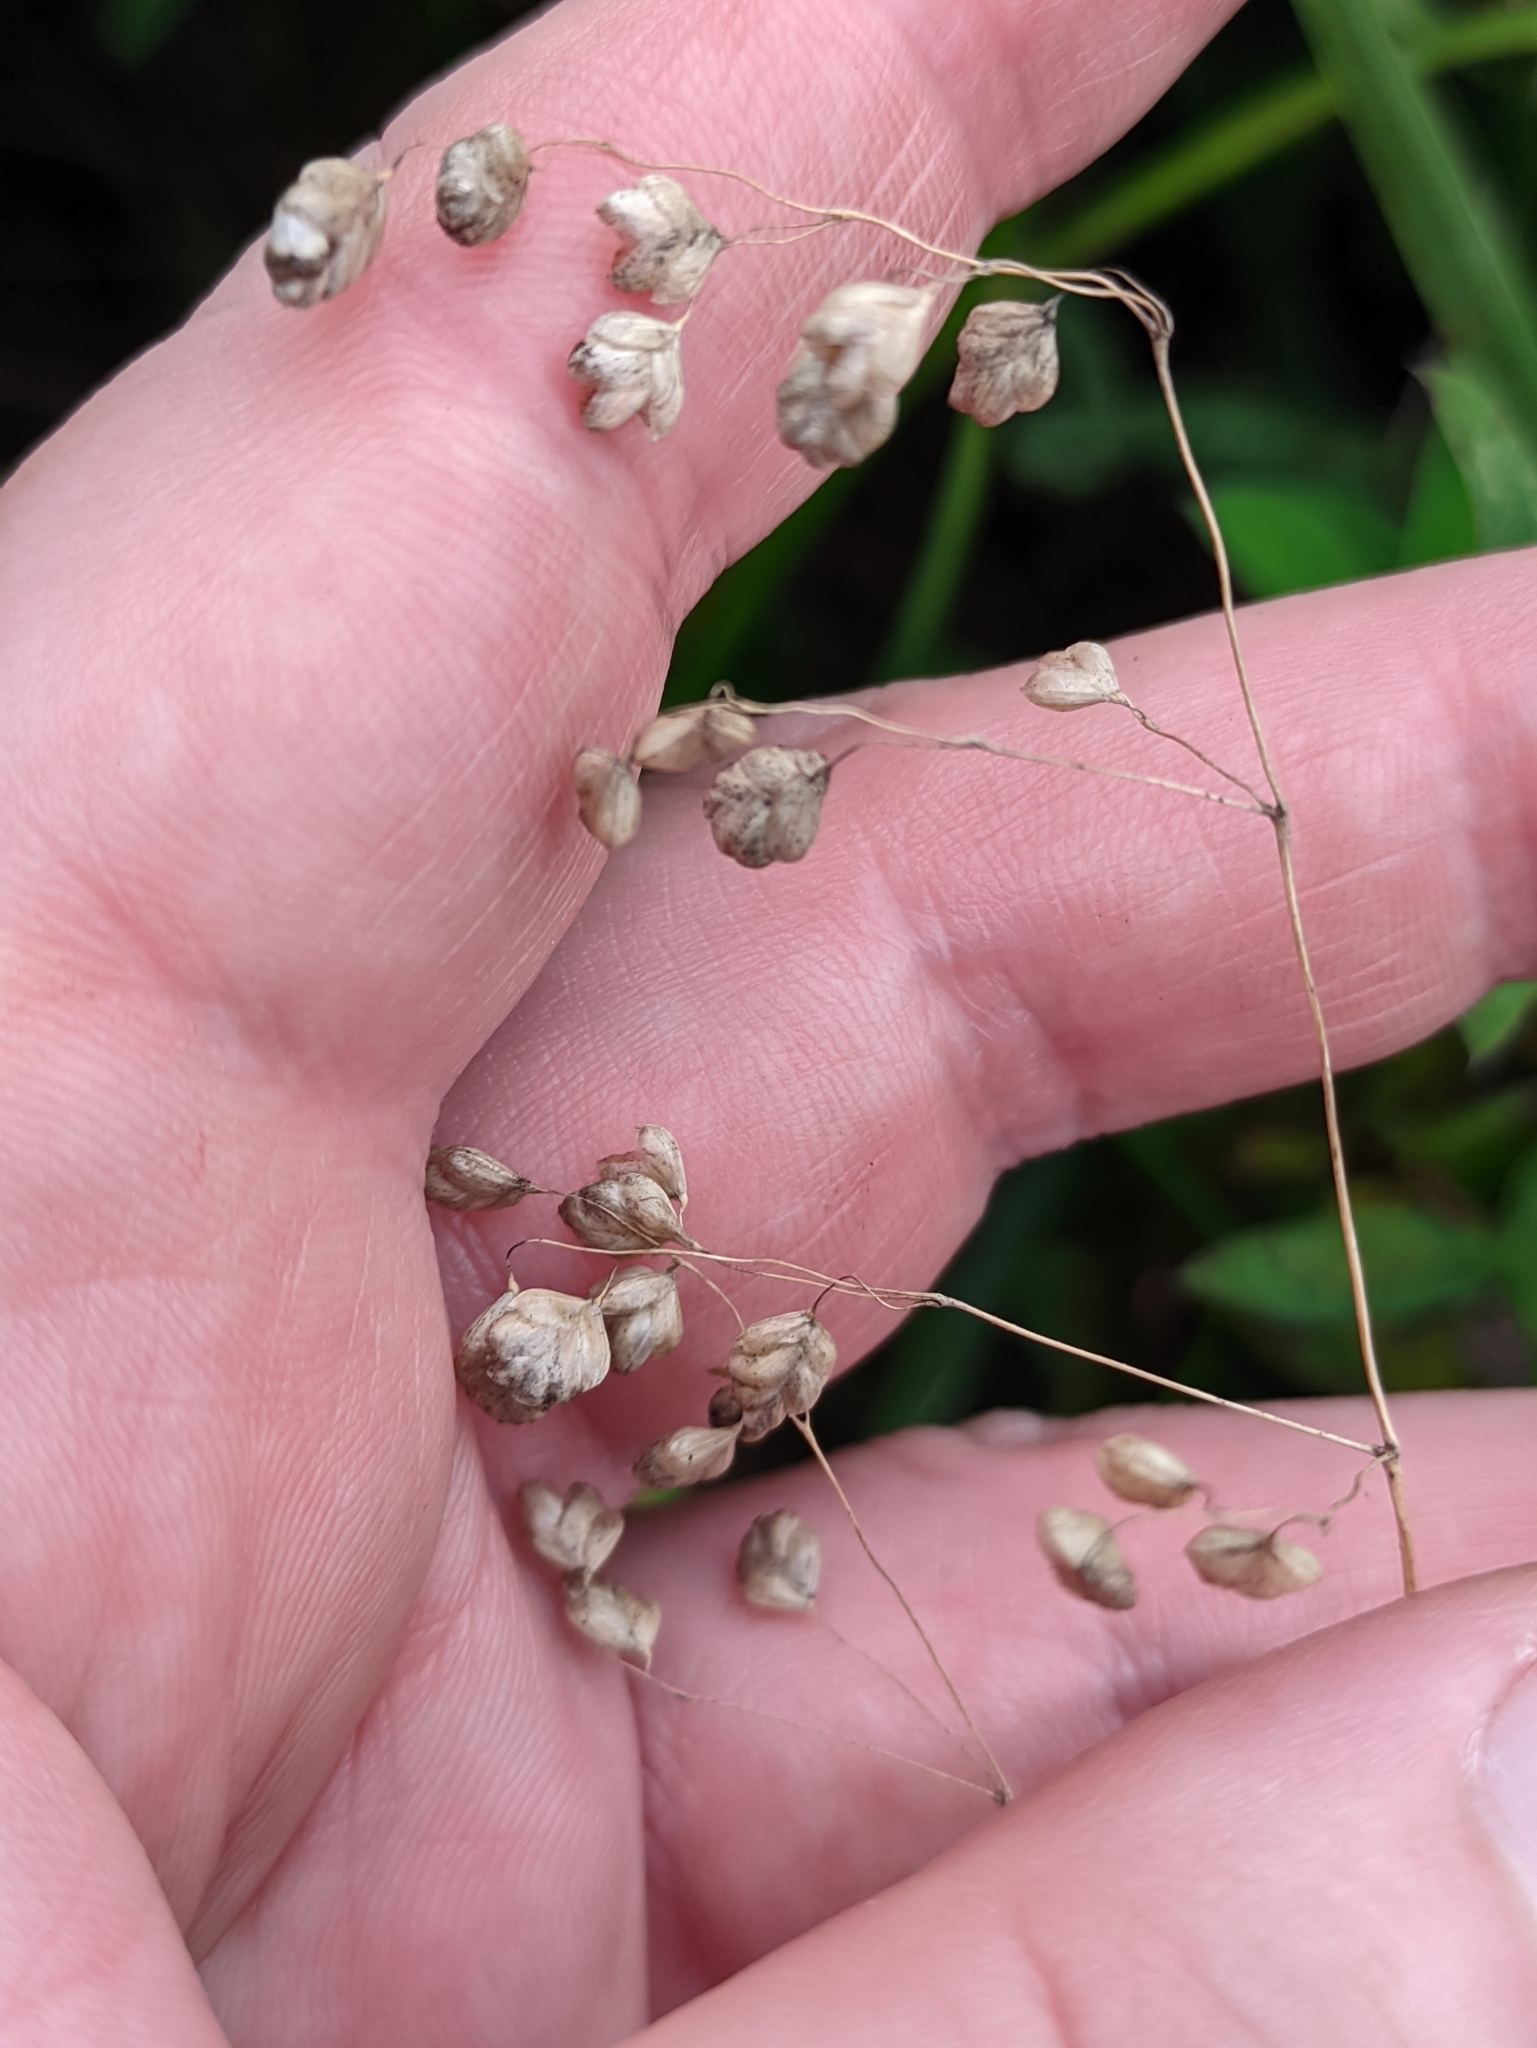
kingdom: Plantae
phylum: Tracheophyta
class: Liliopsida
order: Poales
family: Poaceae
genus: Briza
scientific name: Briza media
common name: Quaking grass
